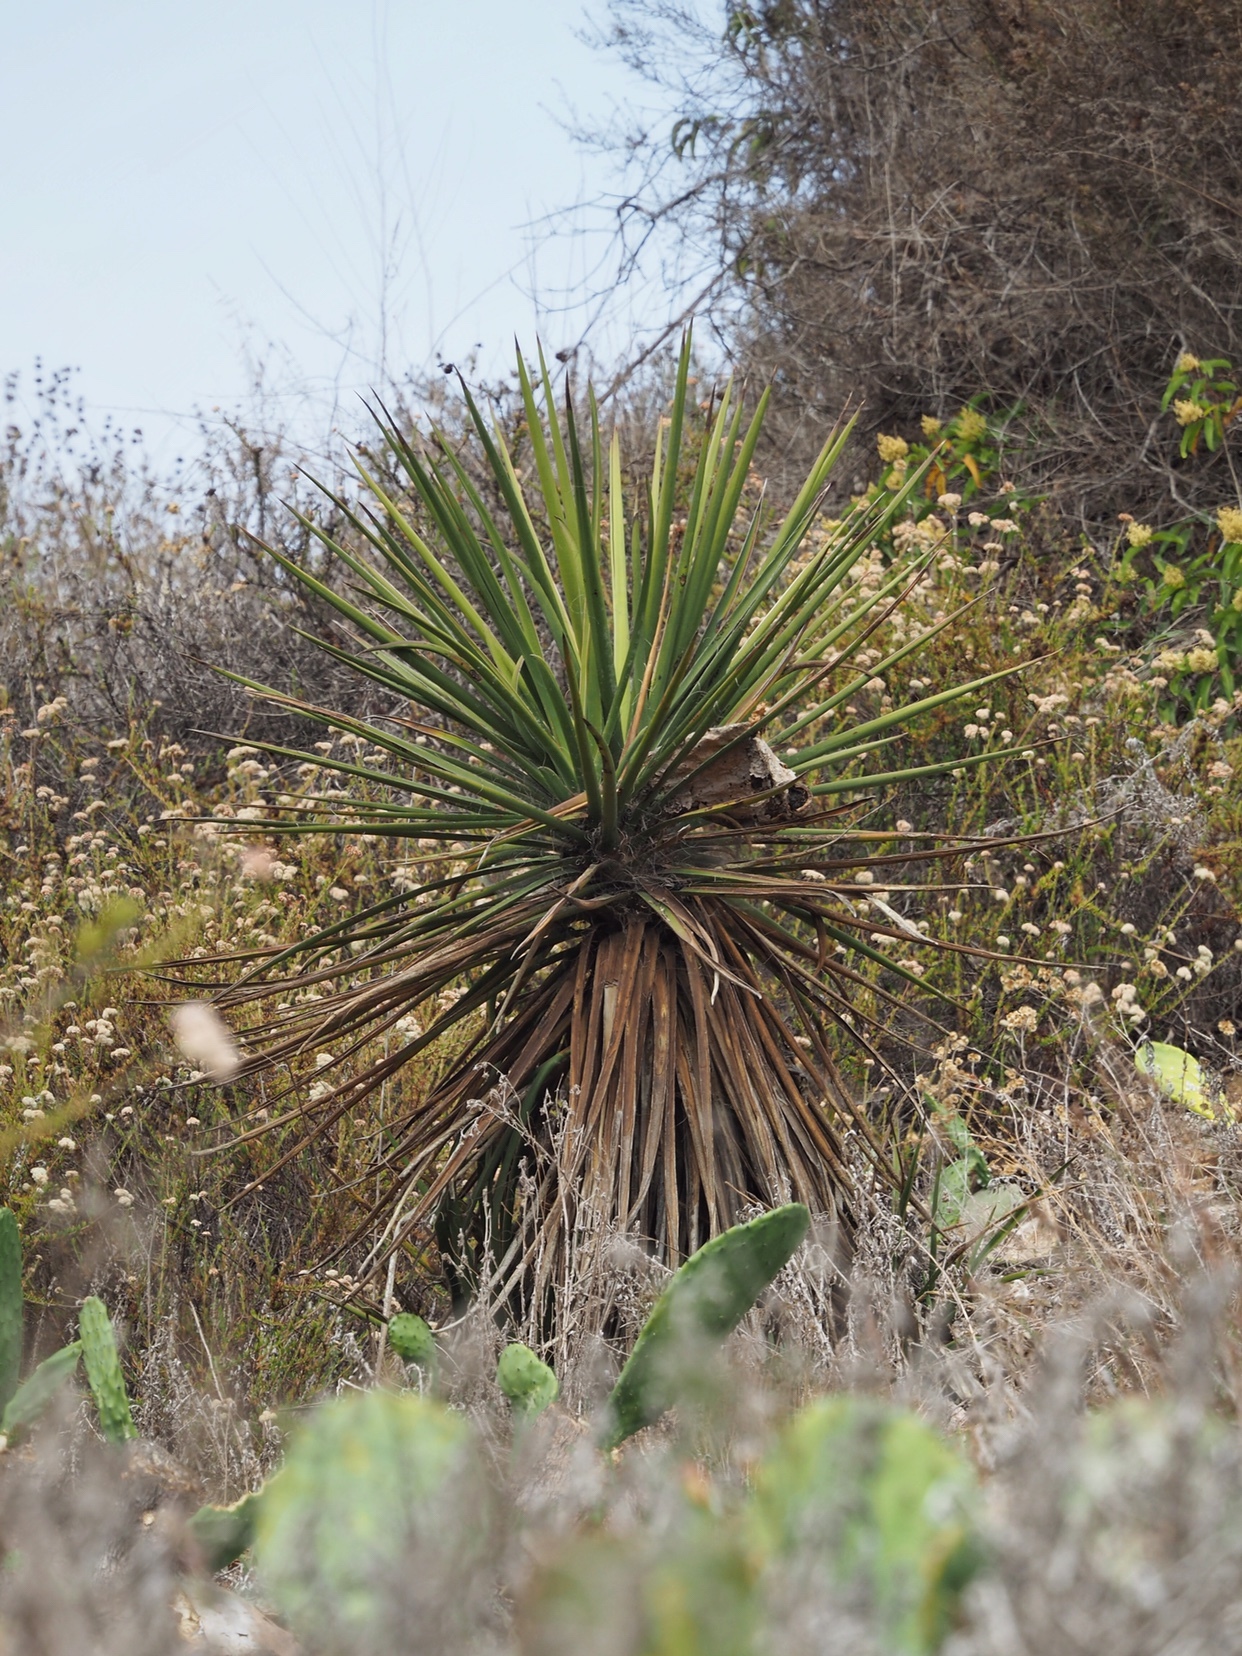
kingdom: Plantae
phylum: Tracheophyta
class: Liliopsida
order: Asparagales
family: Asparagaceae
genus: Yucca
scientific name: Yucca schidigera
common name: Mojave yucca
